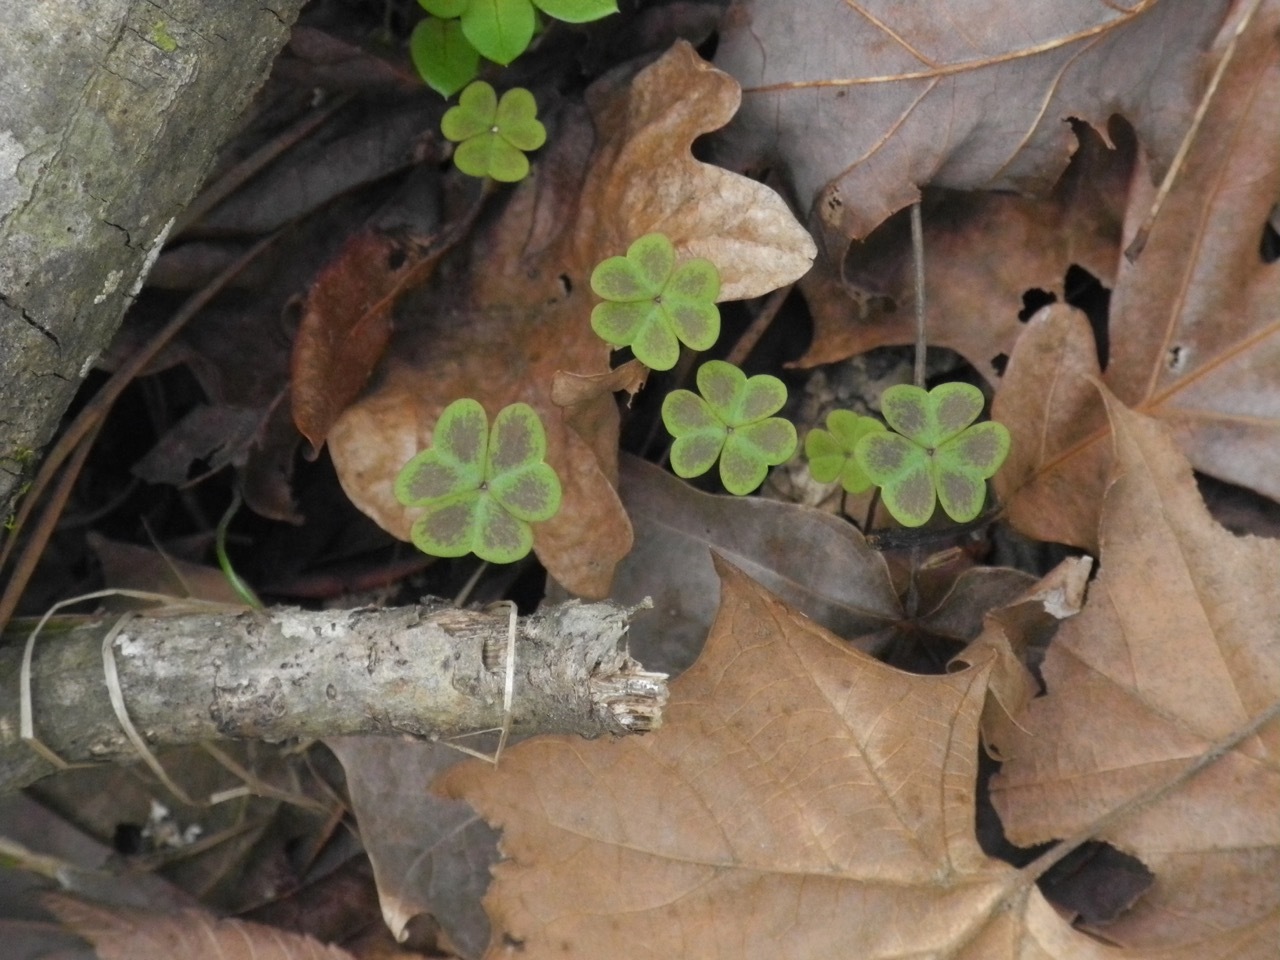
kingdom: Plantae
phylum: Tracheophyta
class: Magnoliopsida
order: Oxalidales
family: Oxalidaceae
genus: Oxalis
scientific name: Oxalis violacea
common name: Violet wood-sorrel
